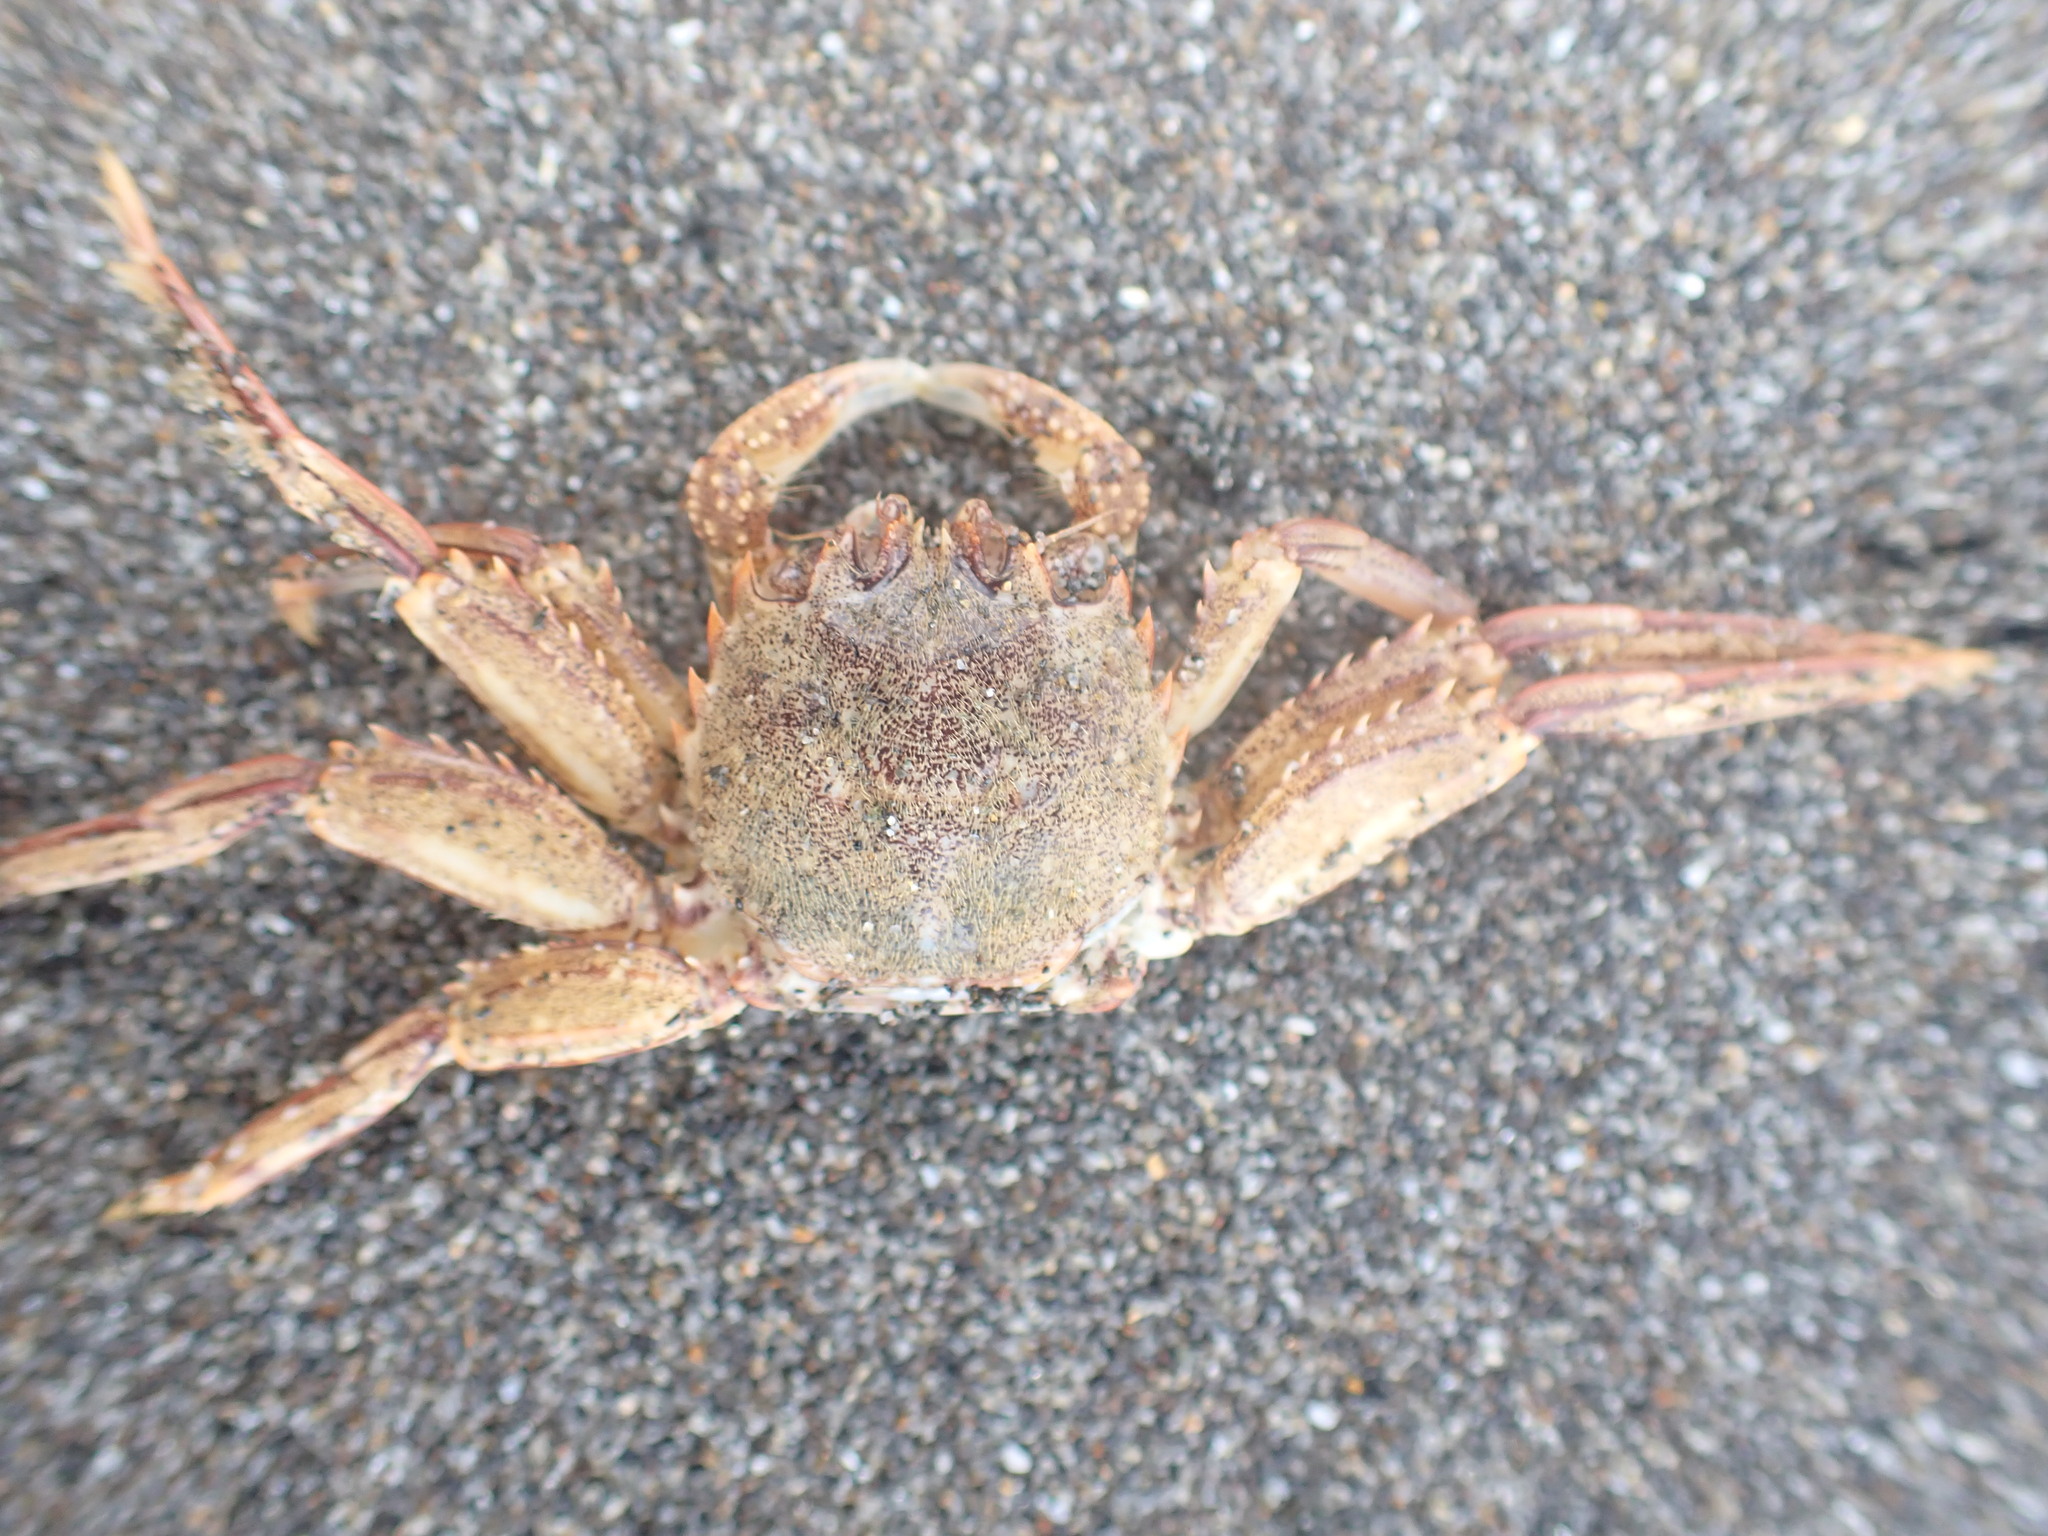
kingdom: Animalia
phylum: Arthropoda
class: Malacostraca
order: Decapoda
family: Plagusiidae
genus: Guinusia
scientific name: Guinusia chabrus
